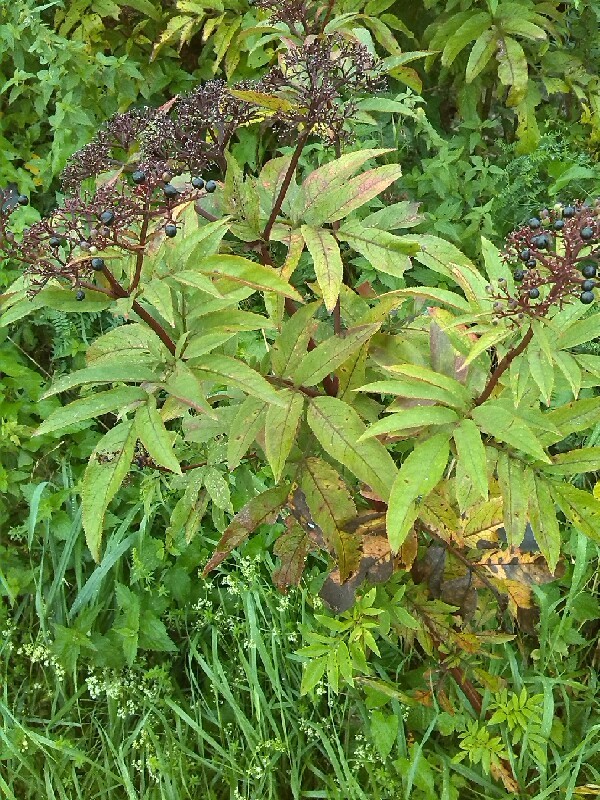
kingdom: Plantae
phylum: Tracheophyta
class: Magnoliopsida
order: Dipsacales
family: Viburnaceae
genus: Sambucus
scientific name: Sambucus ebulus
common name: Dwarf elder
